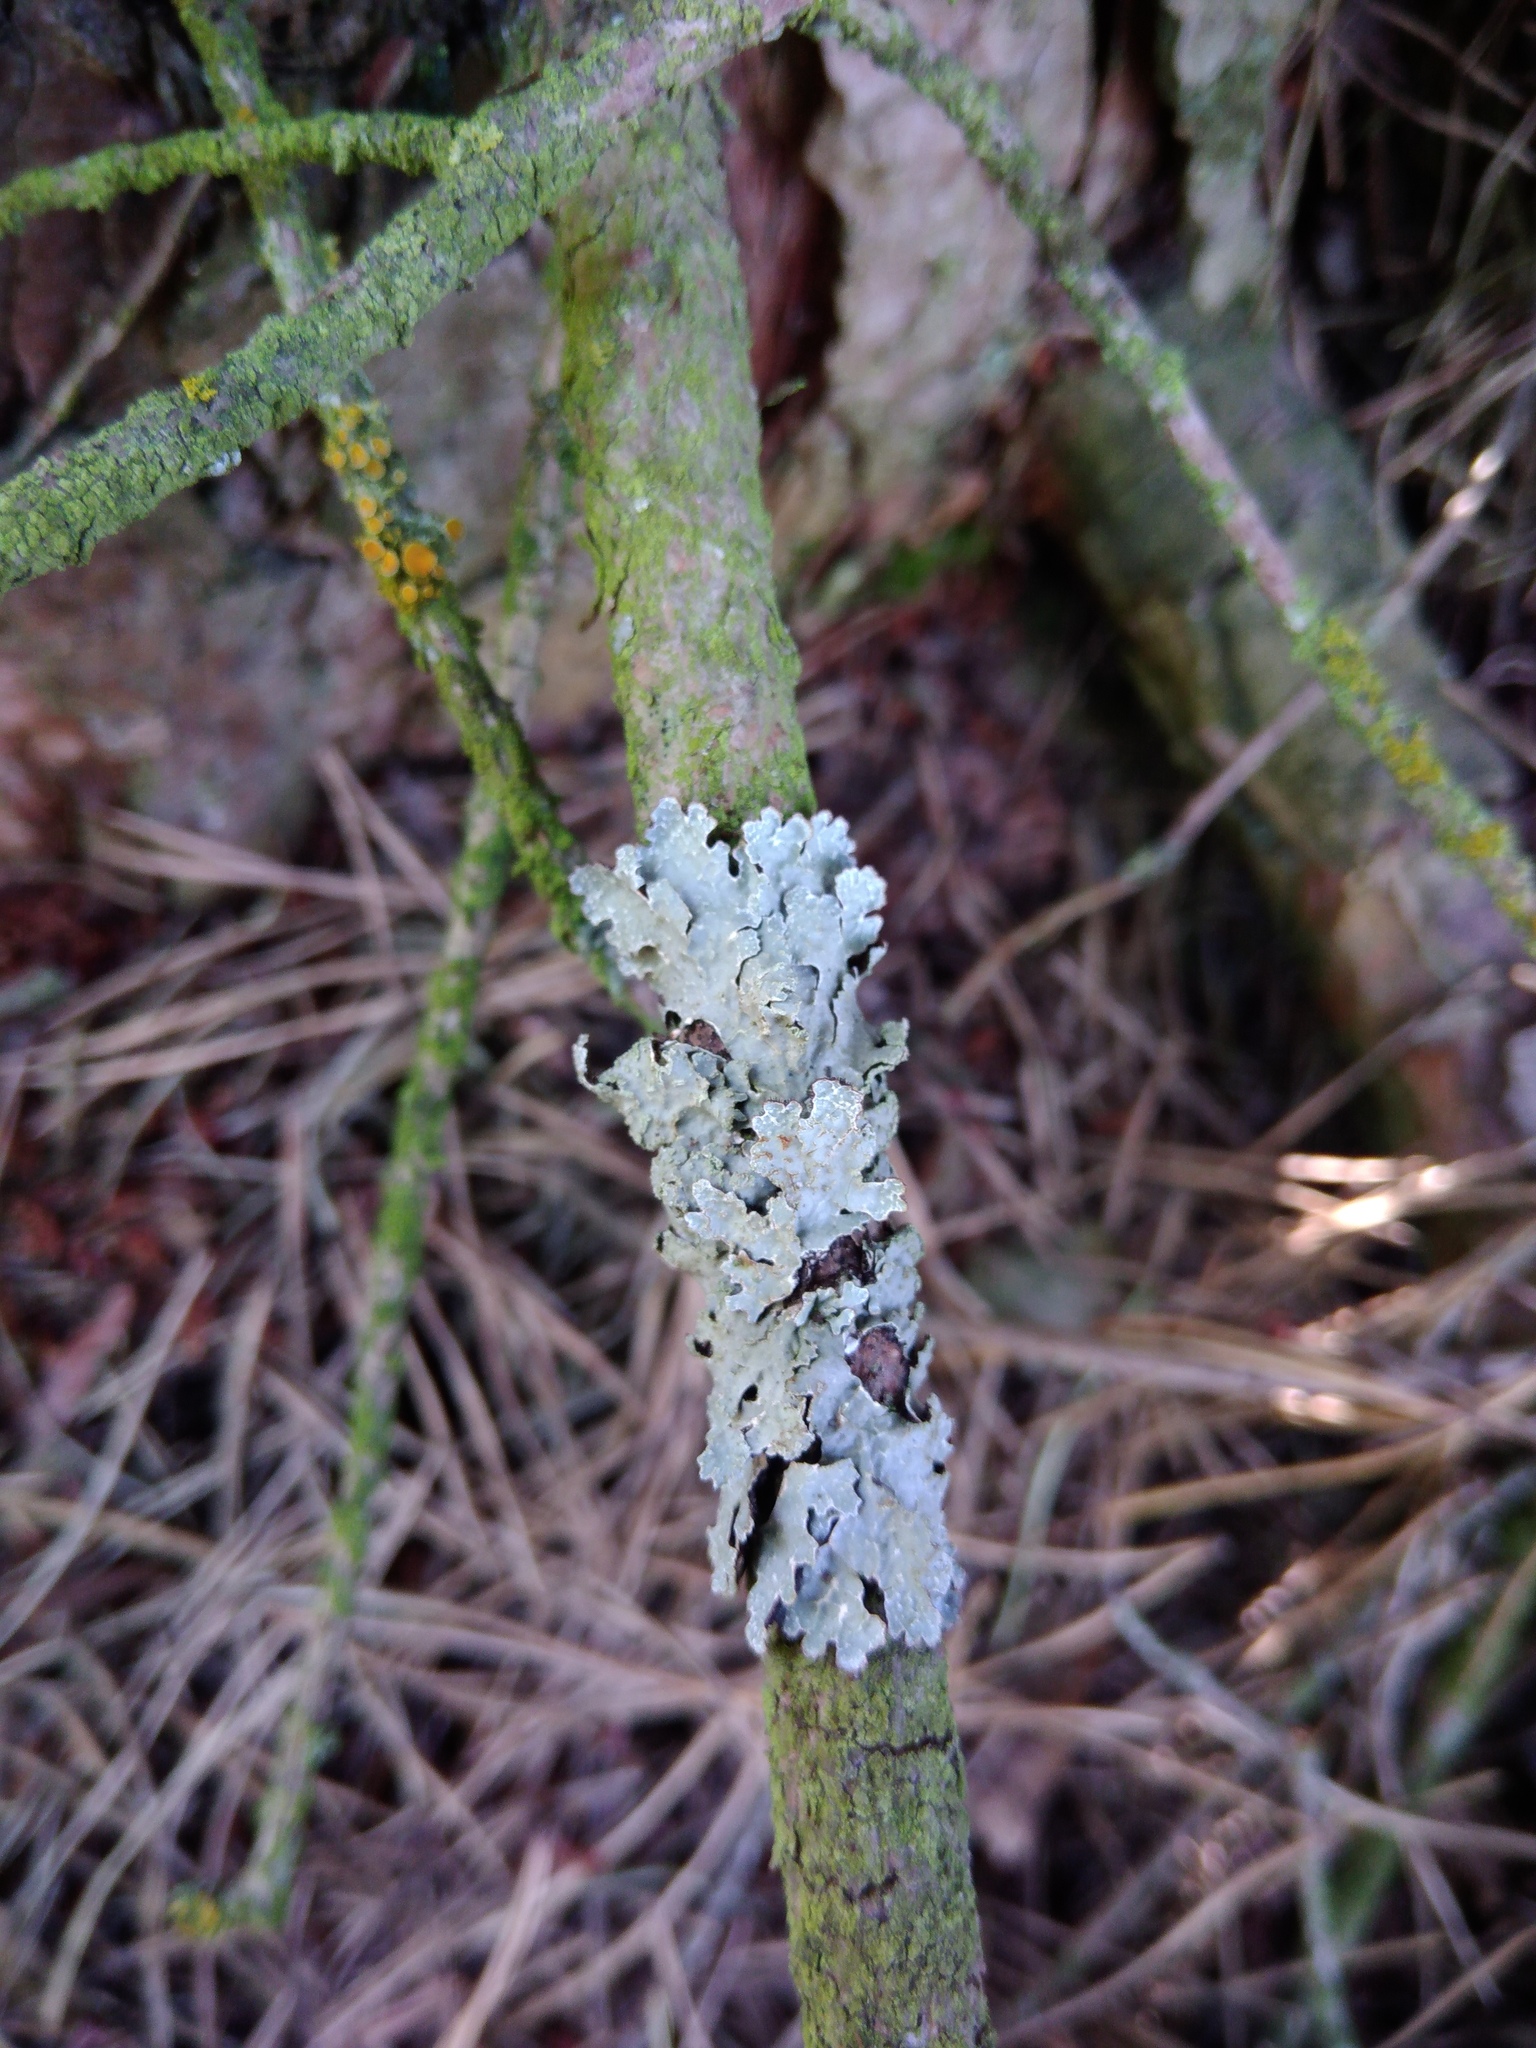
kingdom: Fungi
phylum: Ascomycota
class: Lecanoromycetes
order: Lecanorales
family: Parmeliaceae
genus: Parmelia
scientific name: Parmelia sulcata
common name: Netted shield lichen
